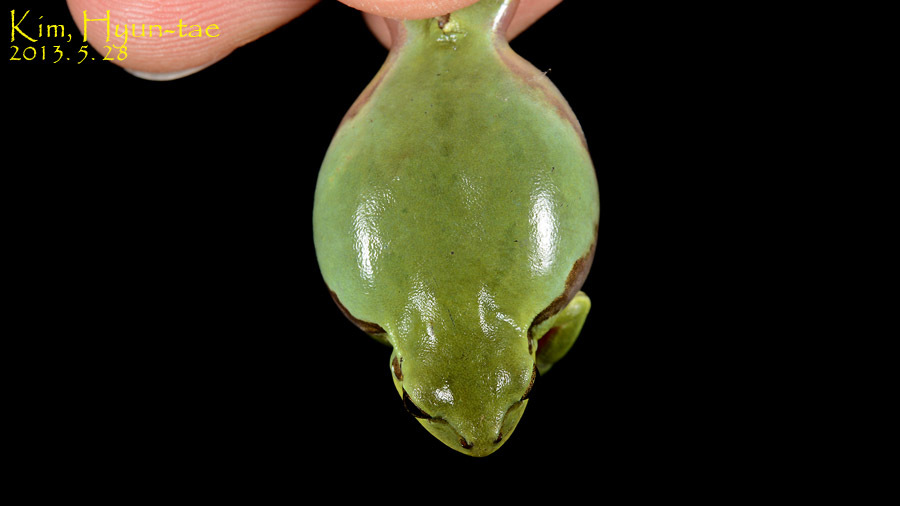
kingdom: Animalia
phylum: Chordata
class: Amphibia
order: Anura
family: Hylidae
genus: Dryophytes
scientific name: Dryophytes immaculatus
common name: North china treefrog
